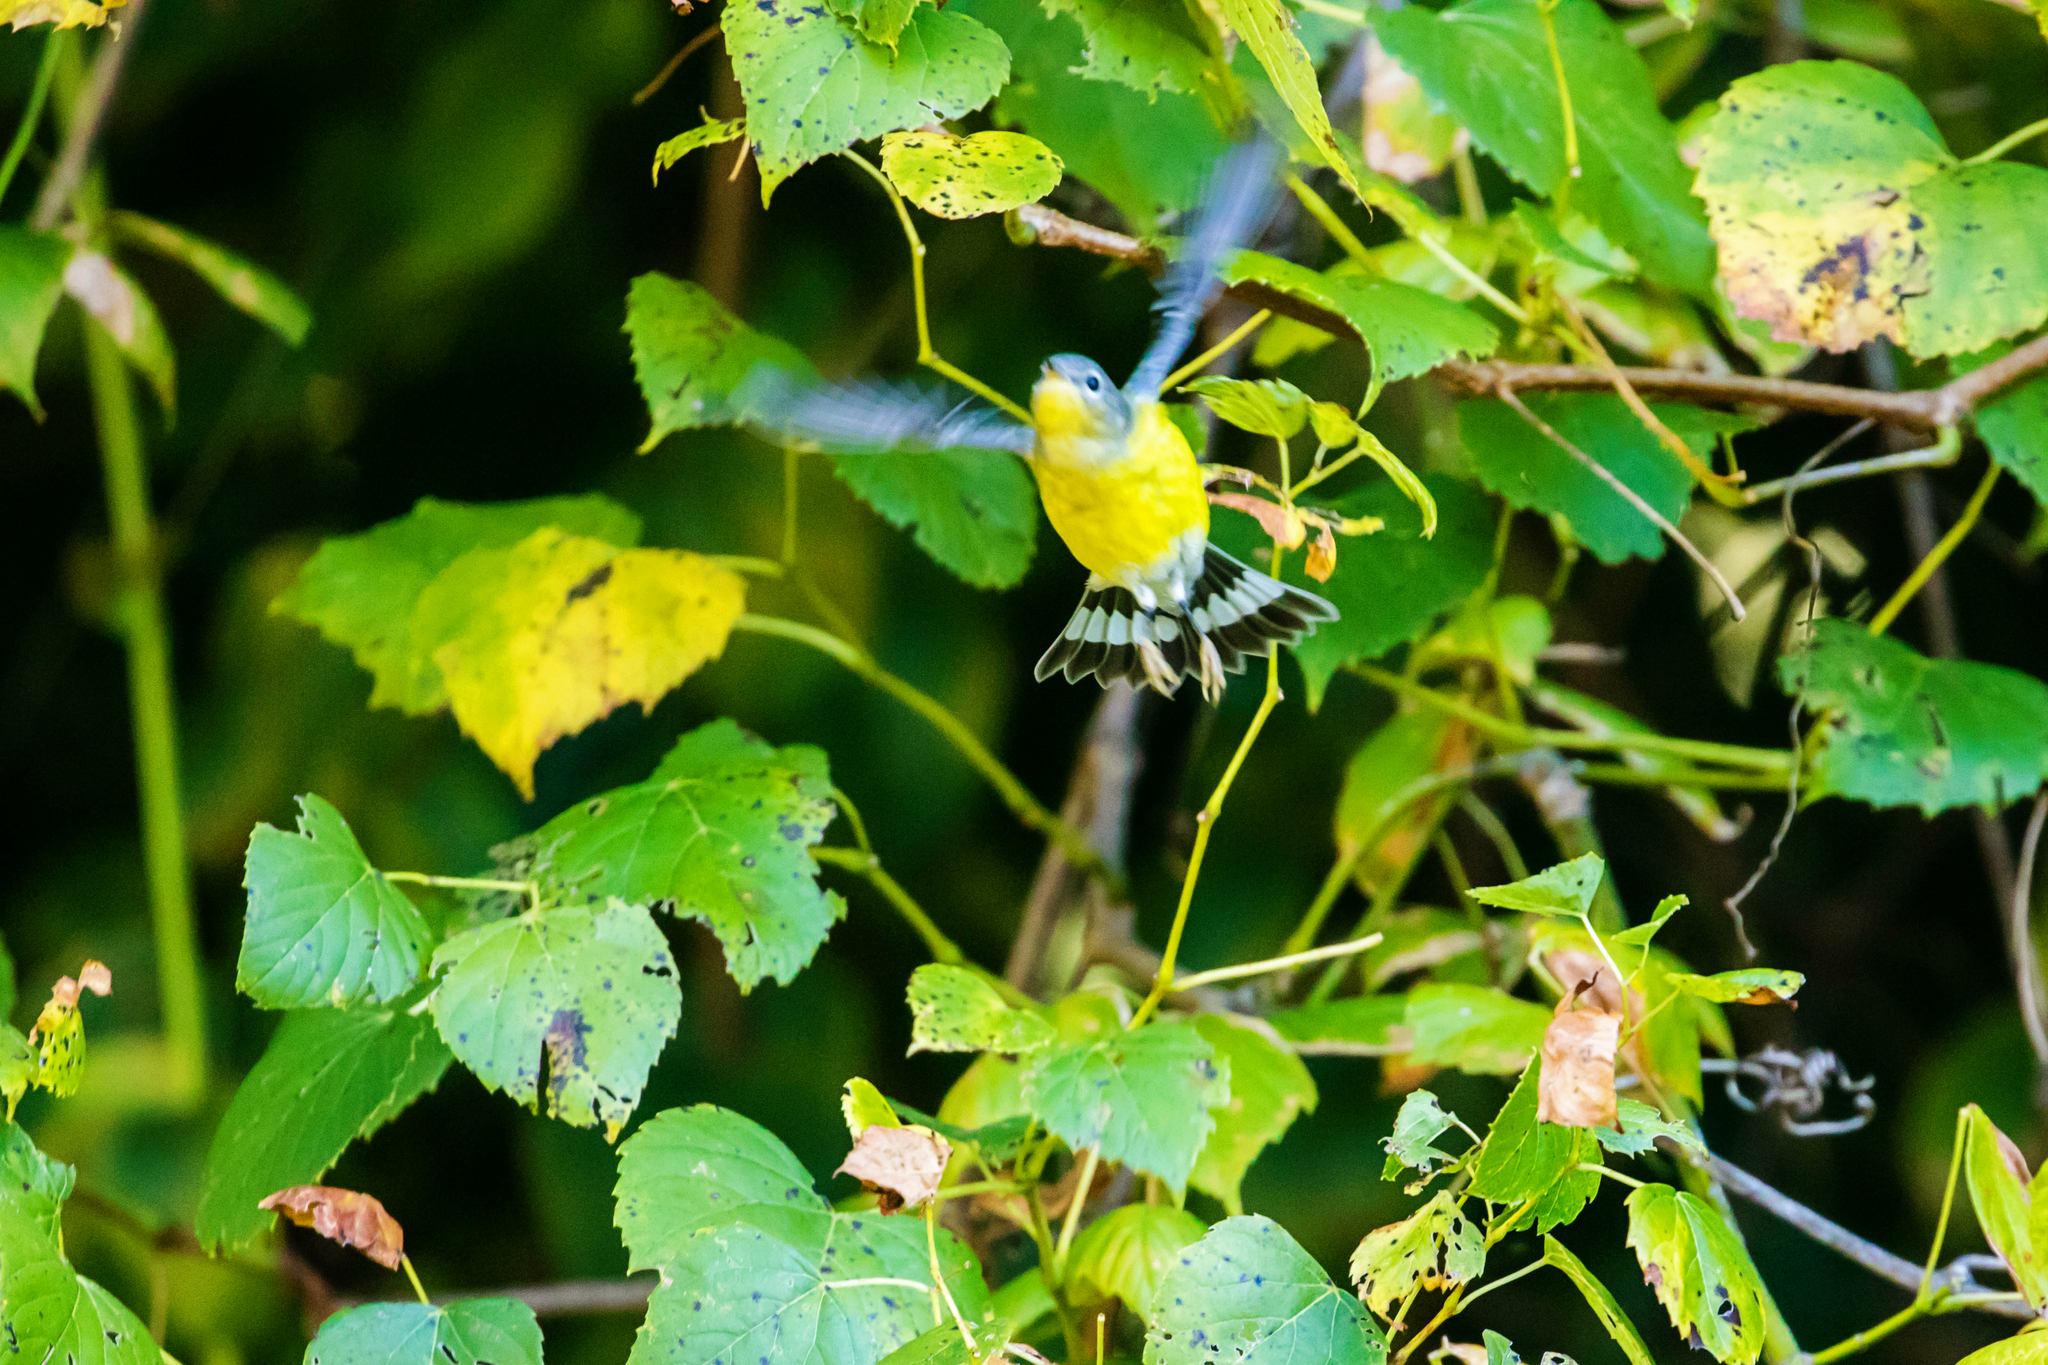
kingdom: Animalia
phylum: Chordata
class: Aves
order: Passeriformes
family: Parulidae
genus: Setophaga
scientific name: Setophaga magnolia
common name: Magnolia warbler
